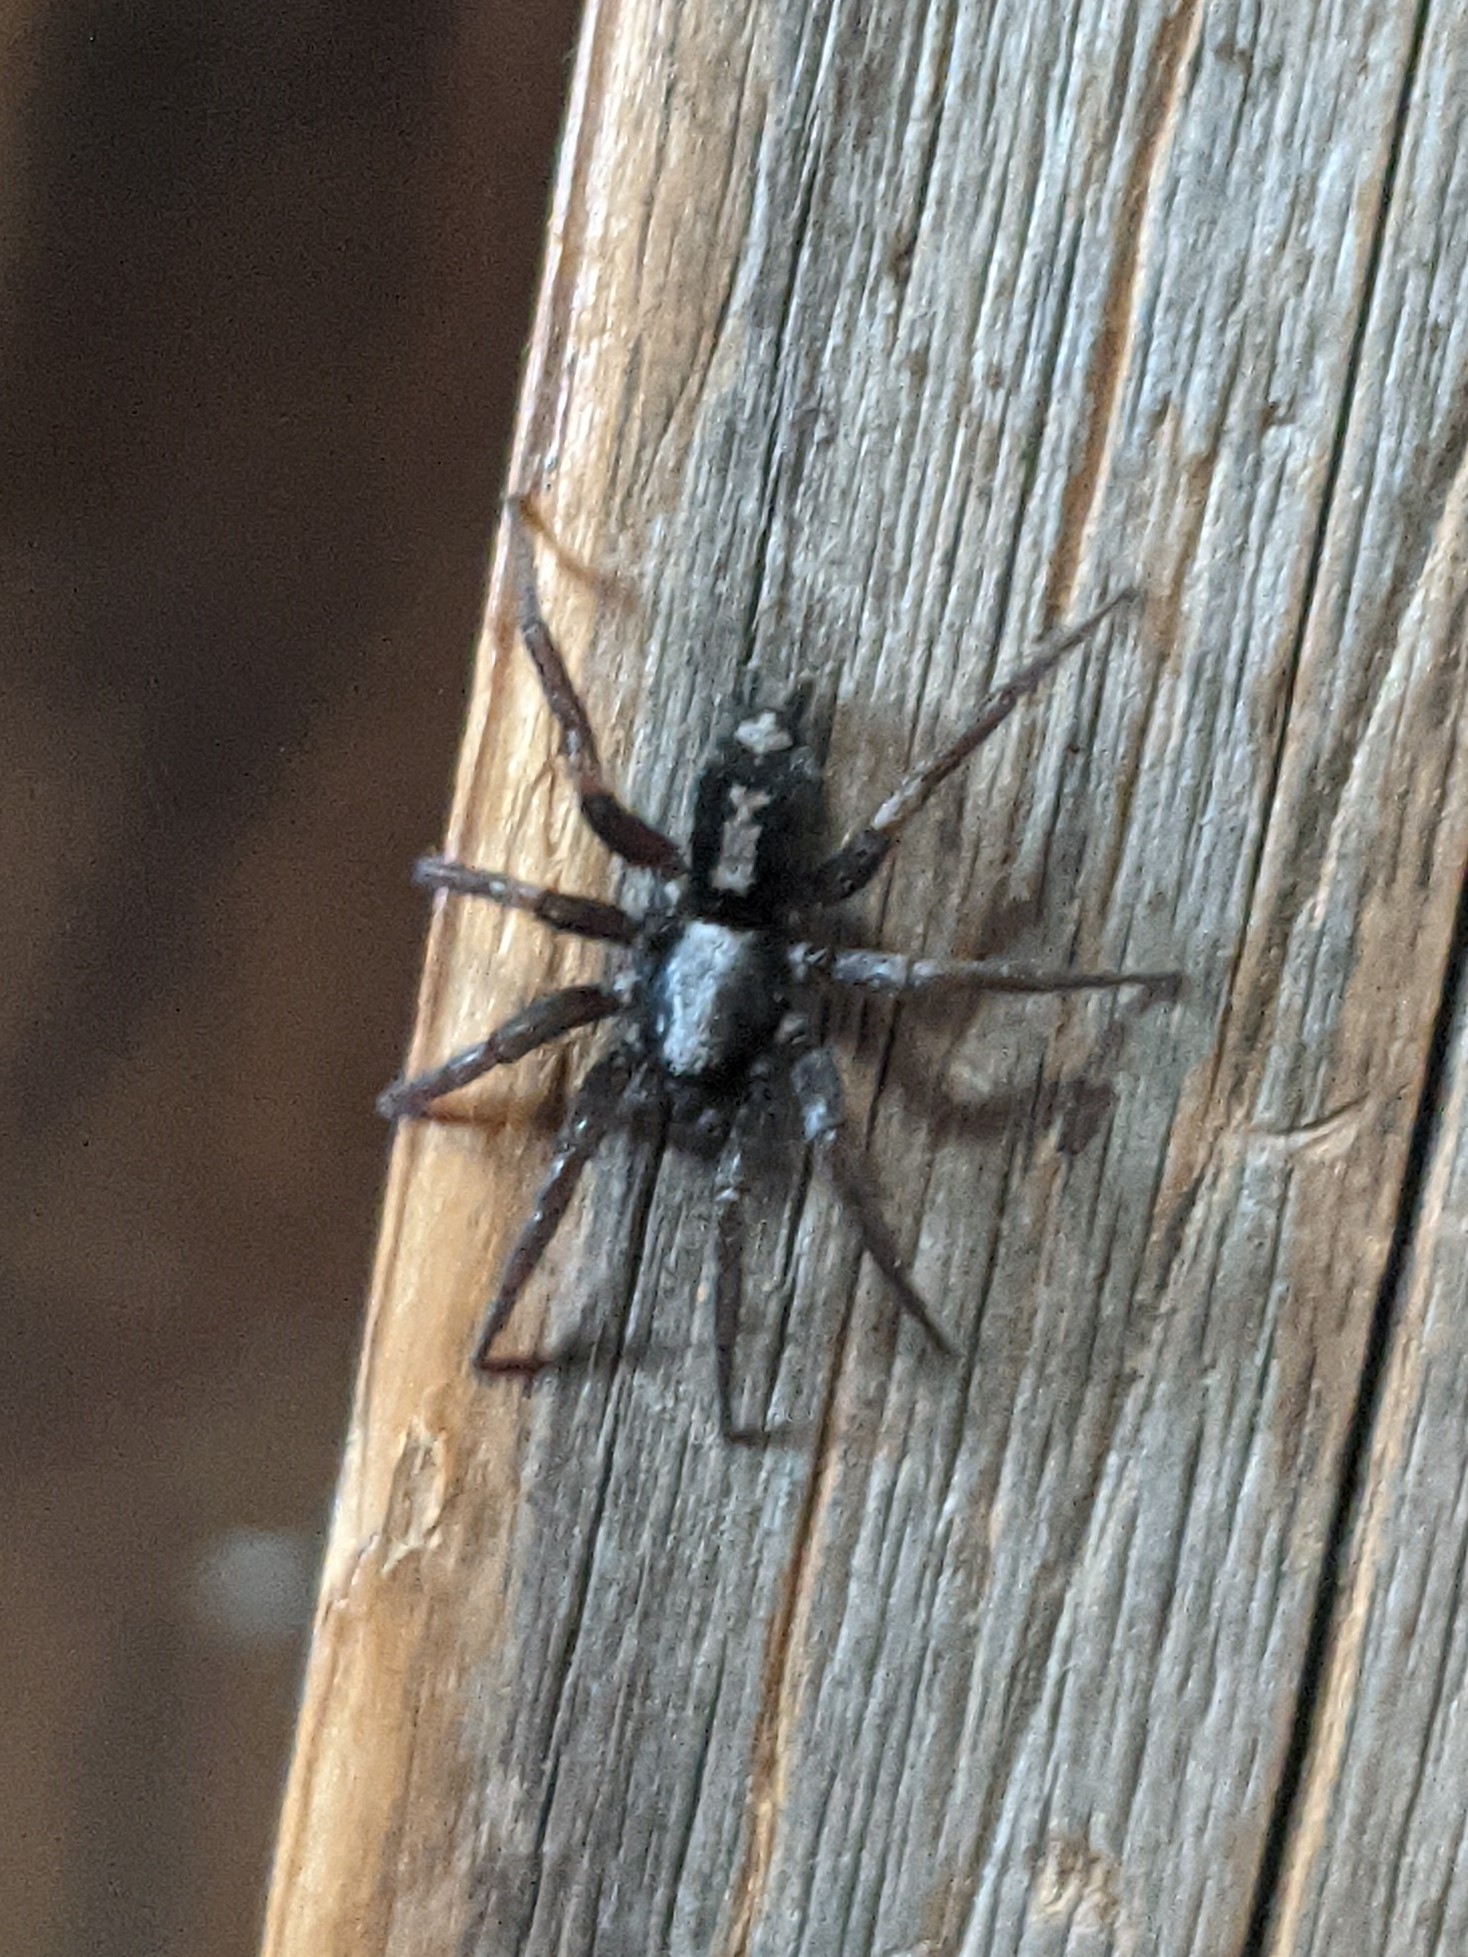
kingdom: Animalia
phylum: Arthropoda
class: Arachnida
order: Araneae
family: Gnaphosidae
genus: Herpyllus
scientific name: Herpyllus ecclesiasticus
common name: Eastern parson spider
